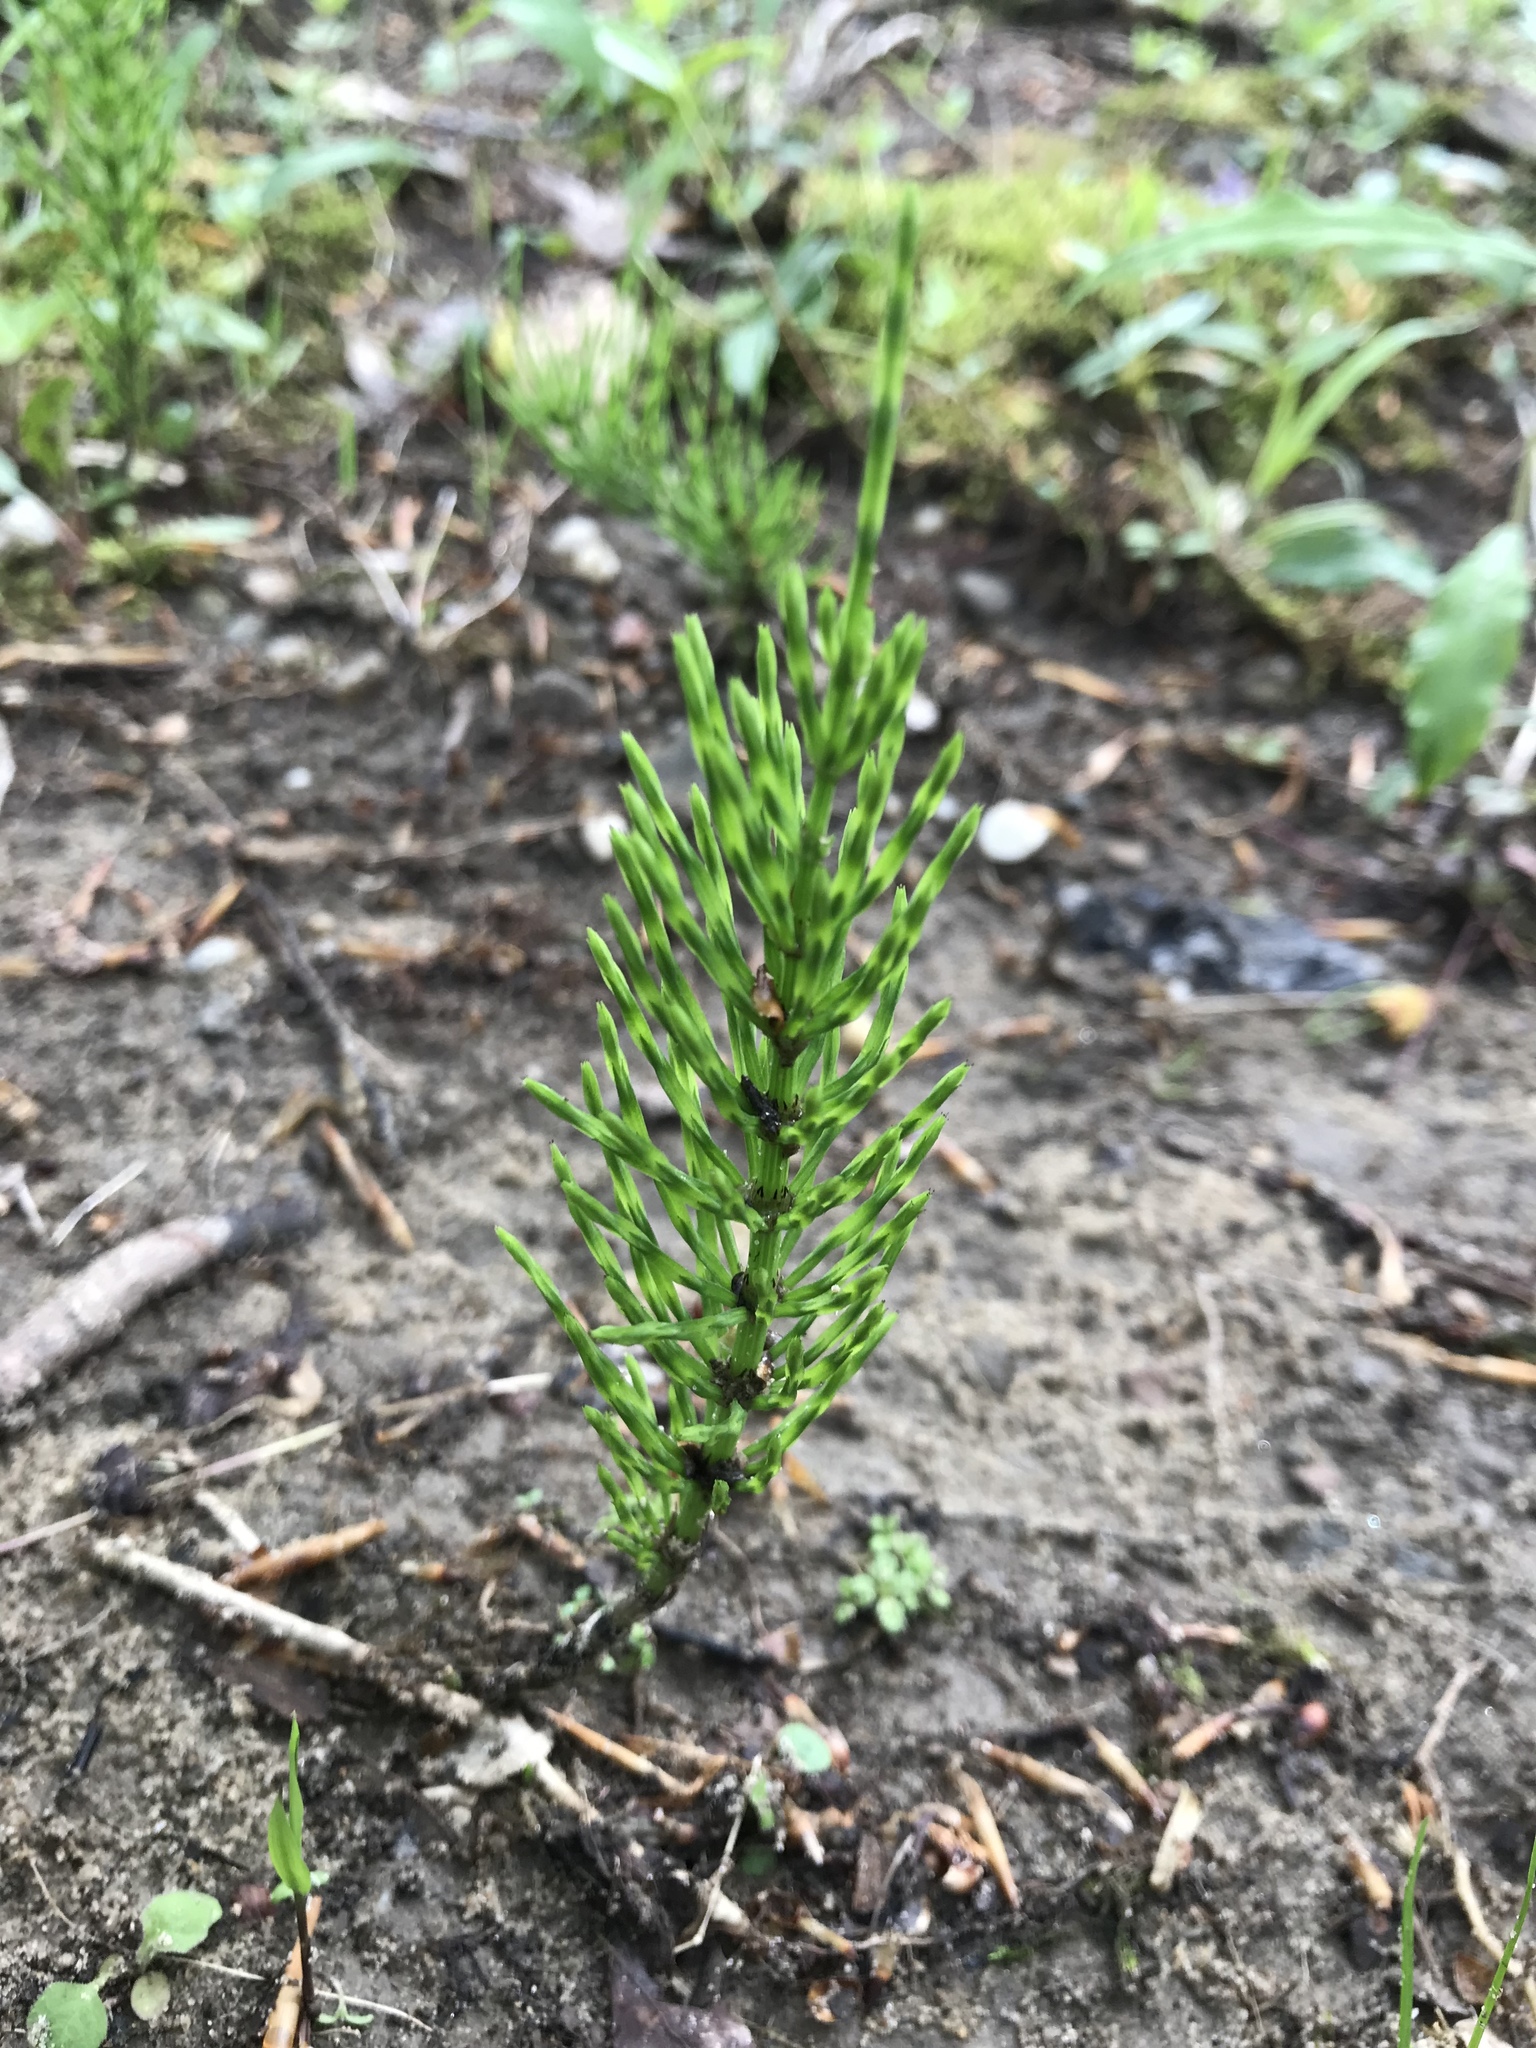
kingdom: Plantae
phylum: Tracheophyta
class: Polypodiopsida
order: Equisetales
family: Equisetaceae
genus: Equisetum
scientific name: Equisetum arvense
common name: Field horsetail
